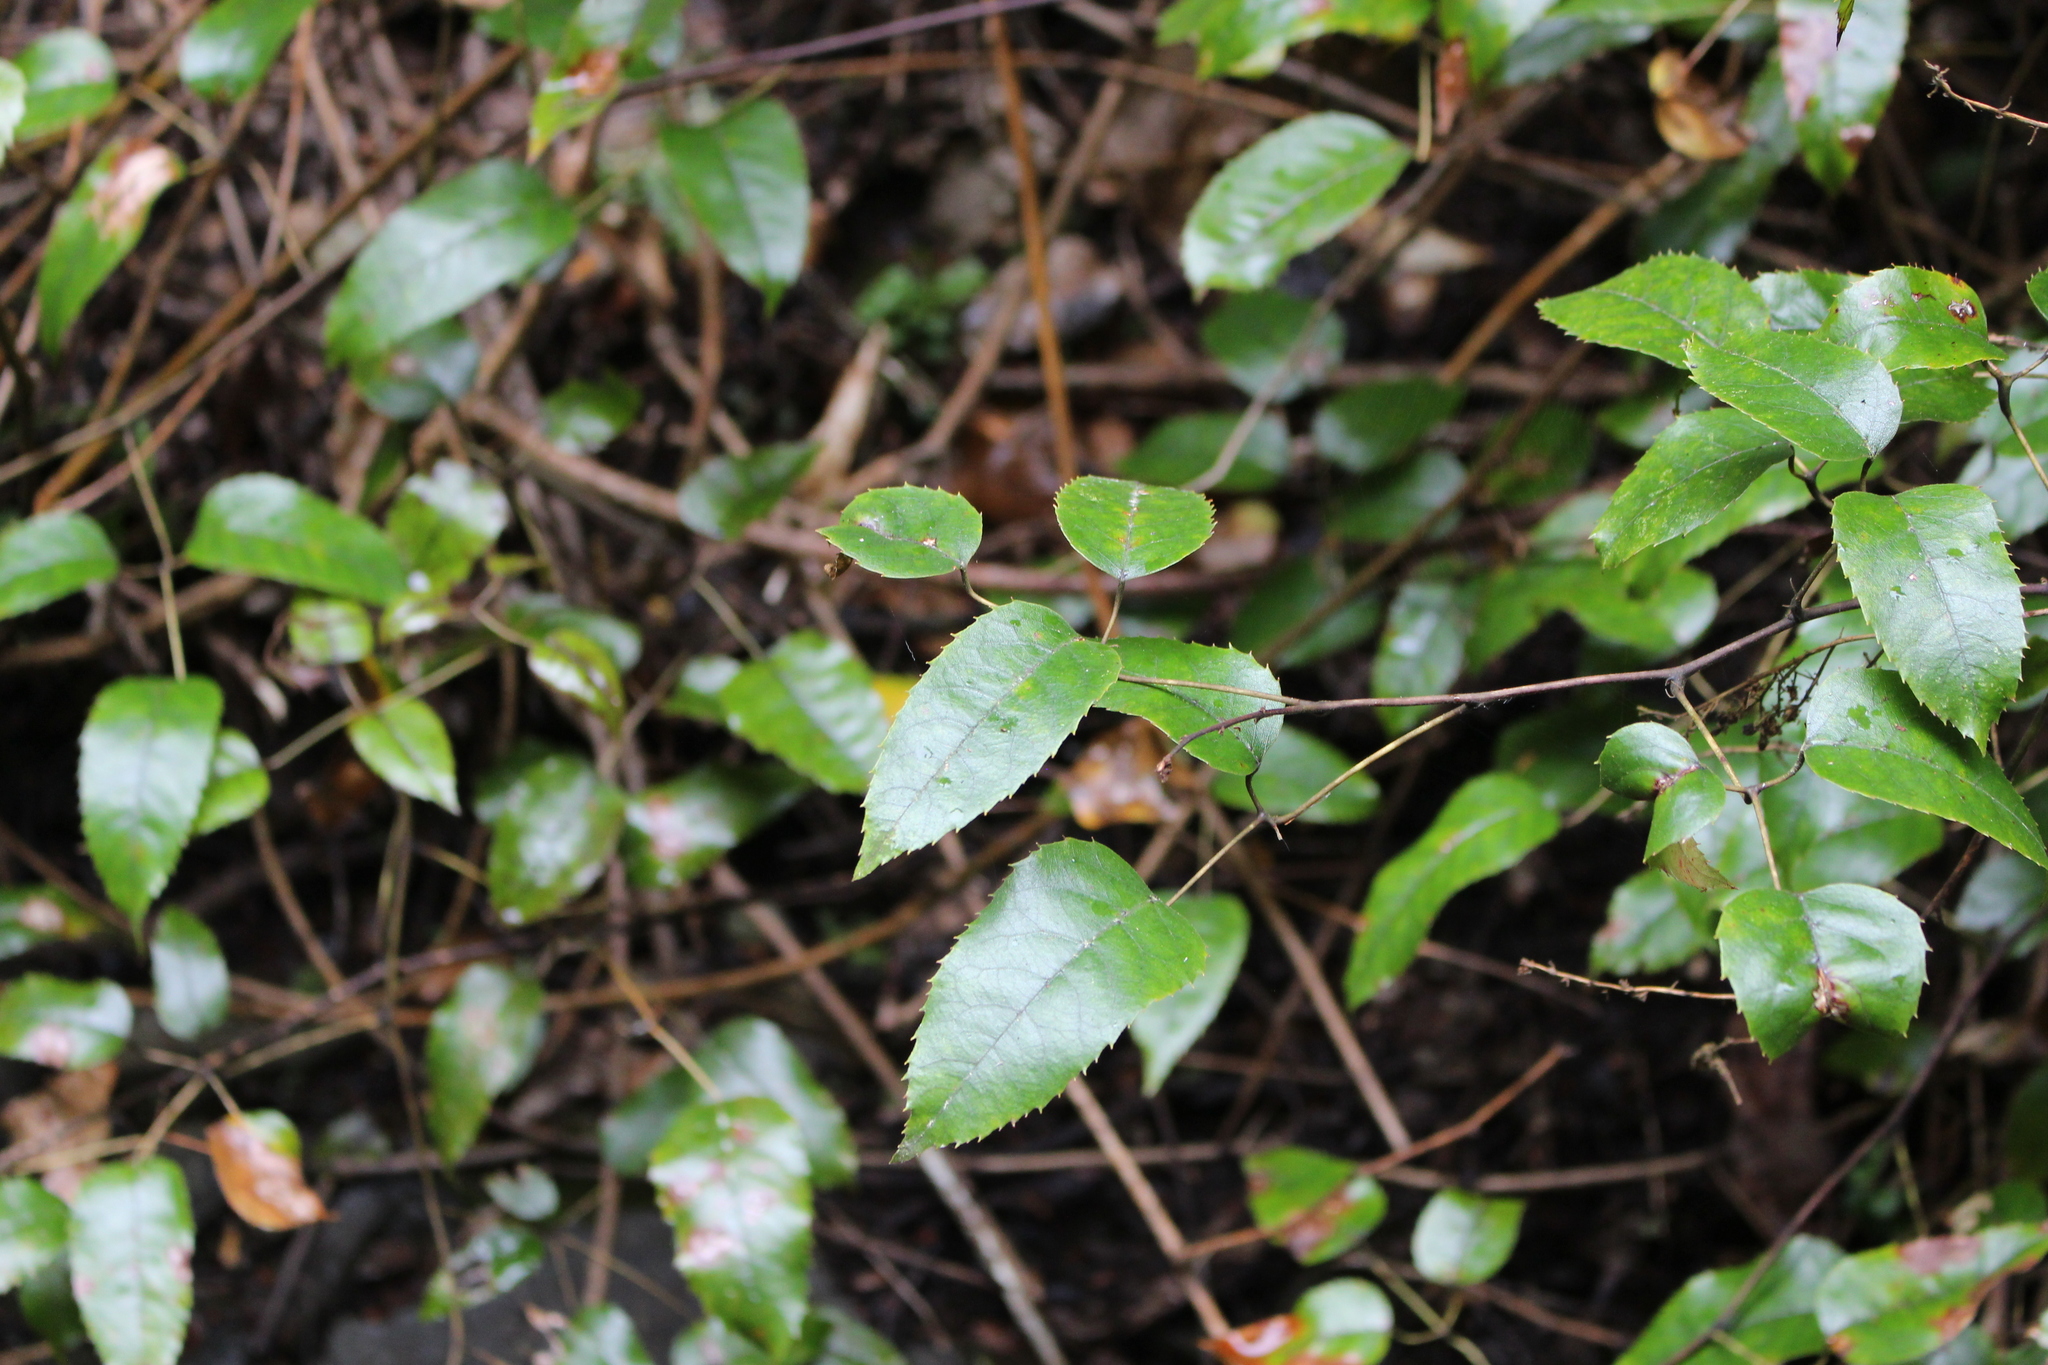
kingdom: Plantae
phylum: Tracheophyta
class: Magnoliopsida
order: Rosales
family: Rosaceae
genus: Rubus
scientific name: Rubus cissoides
